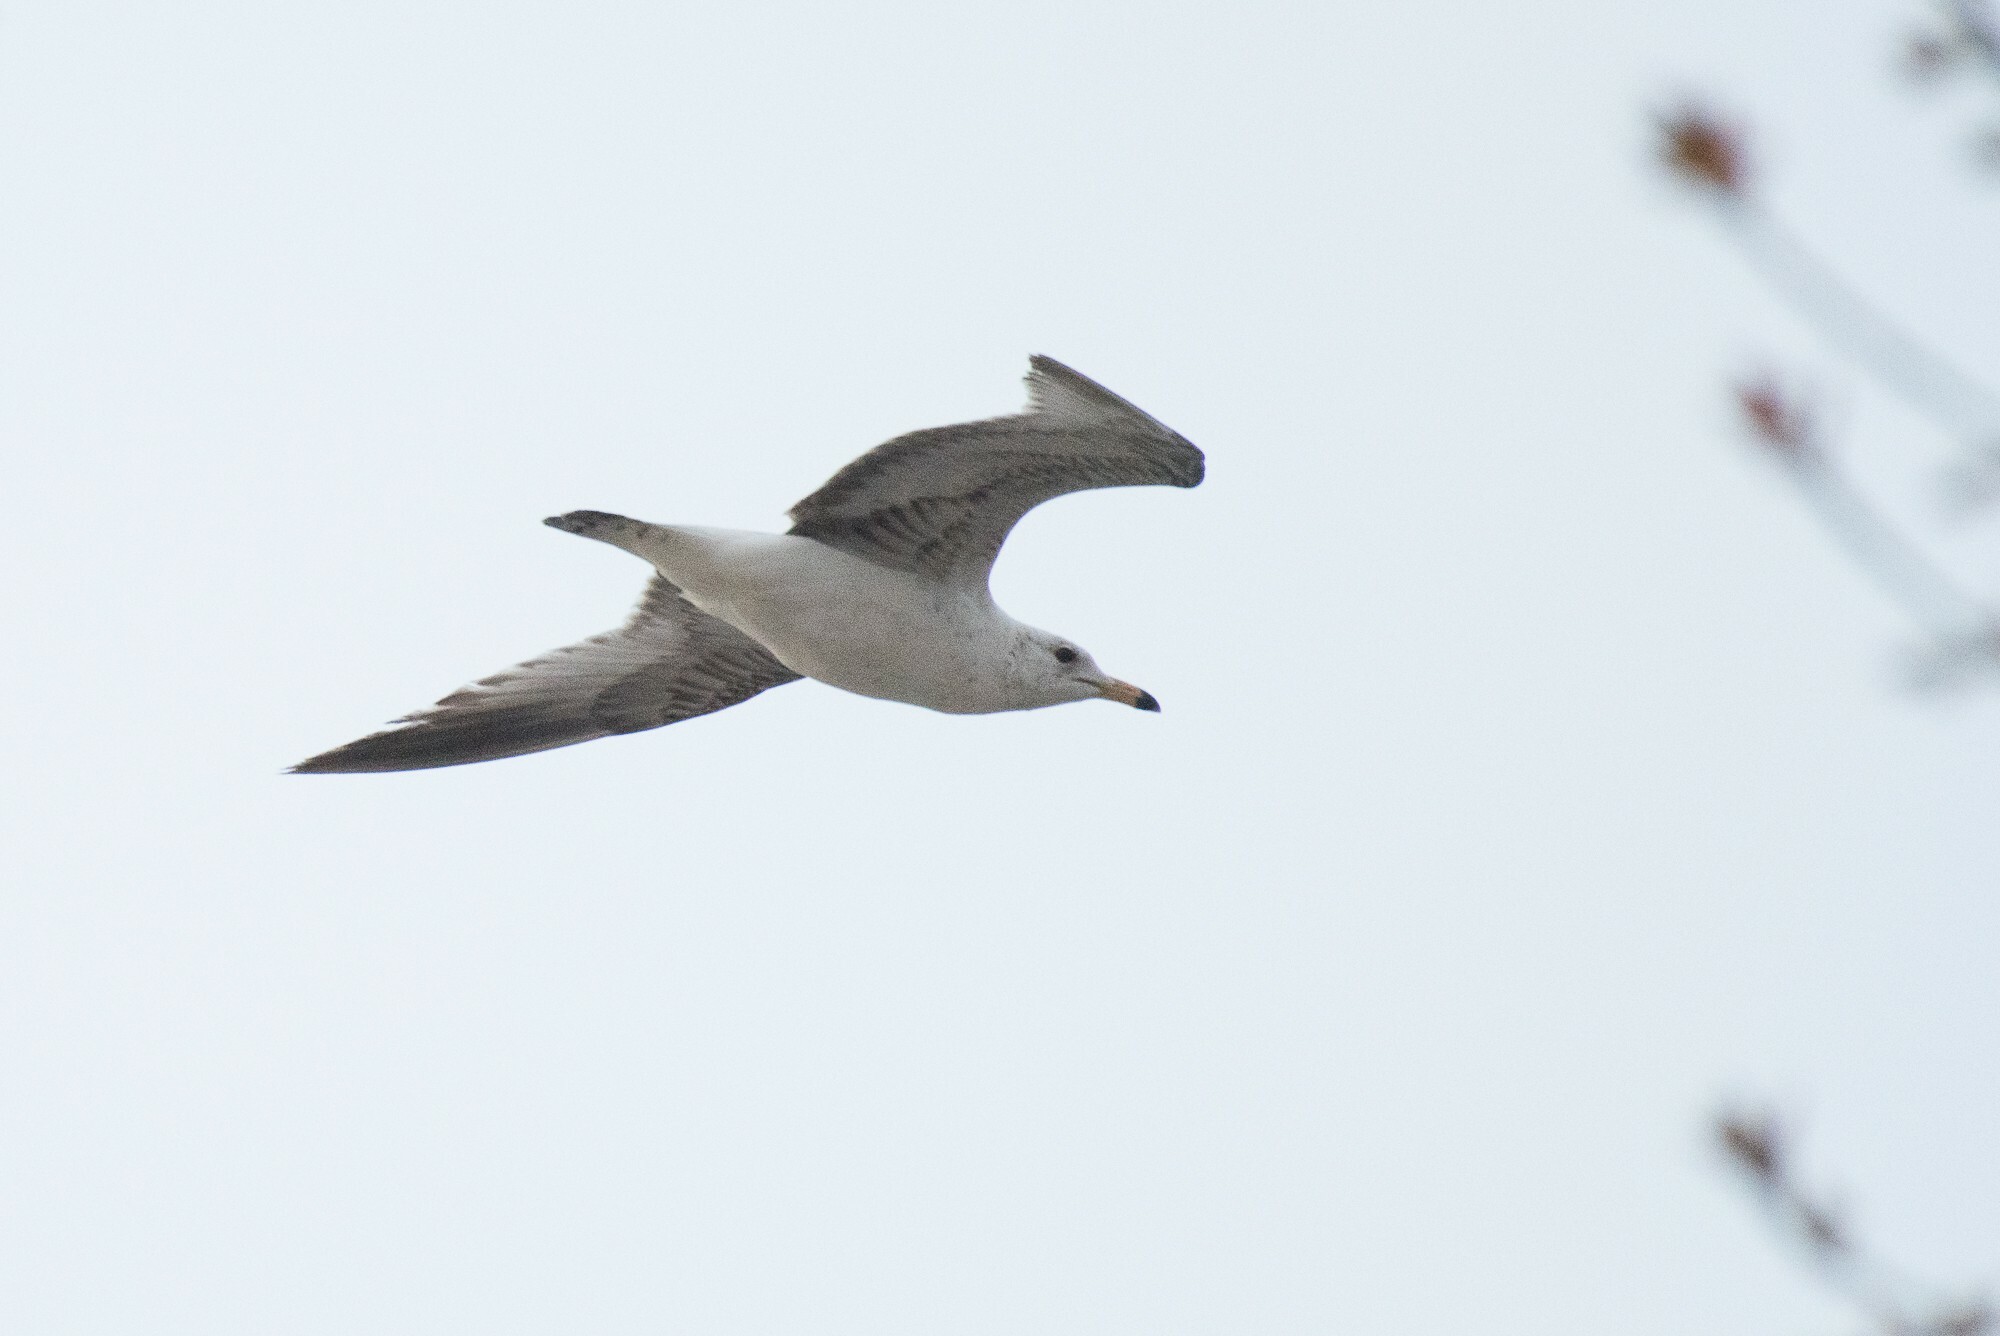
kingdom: Animalia
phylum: Chordata
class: Aves
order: Charadriiformes
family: Laridae
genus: Larus
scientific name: Larus delawarensis
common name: Ring-billed gull
